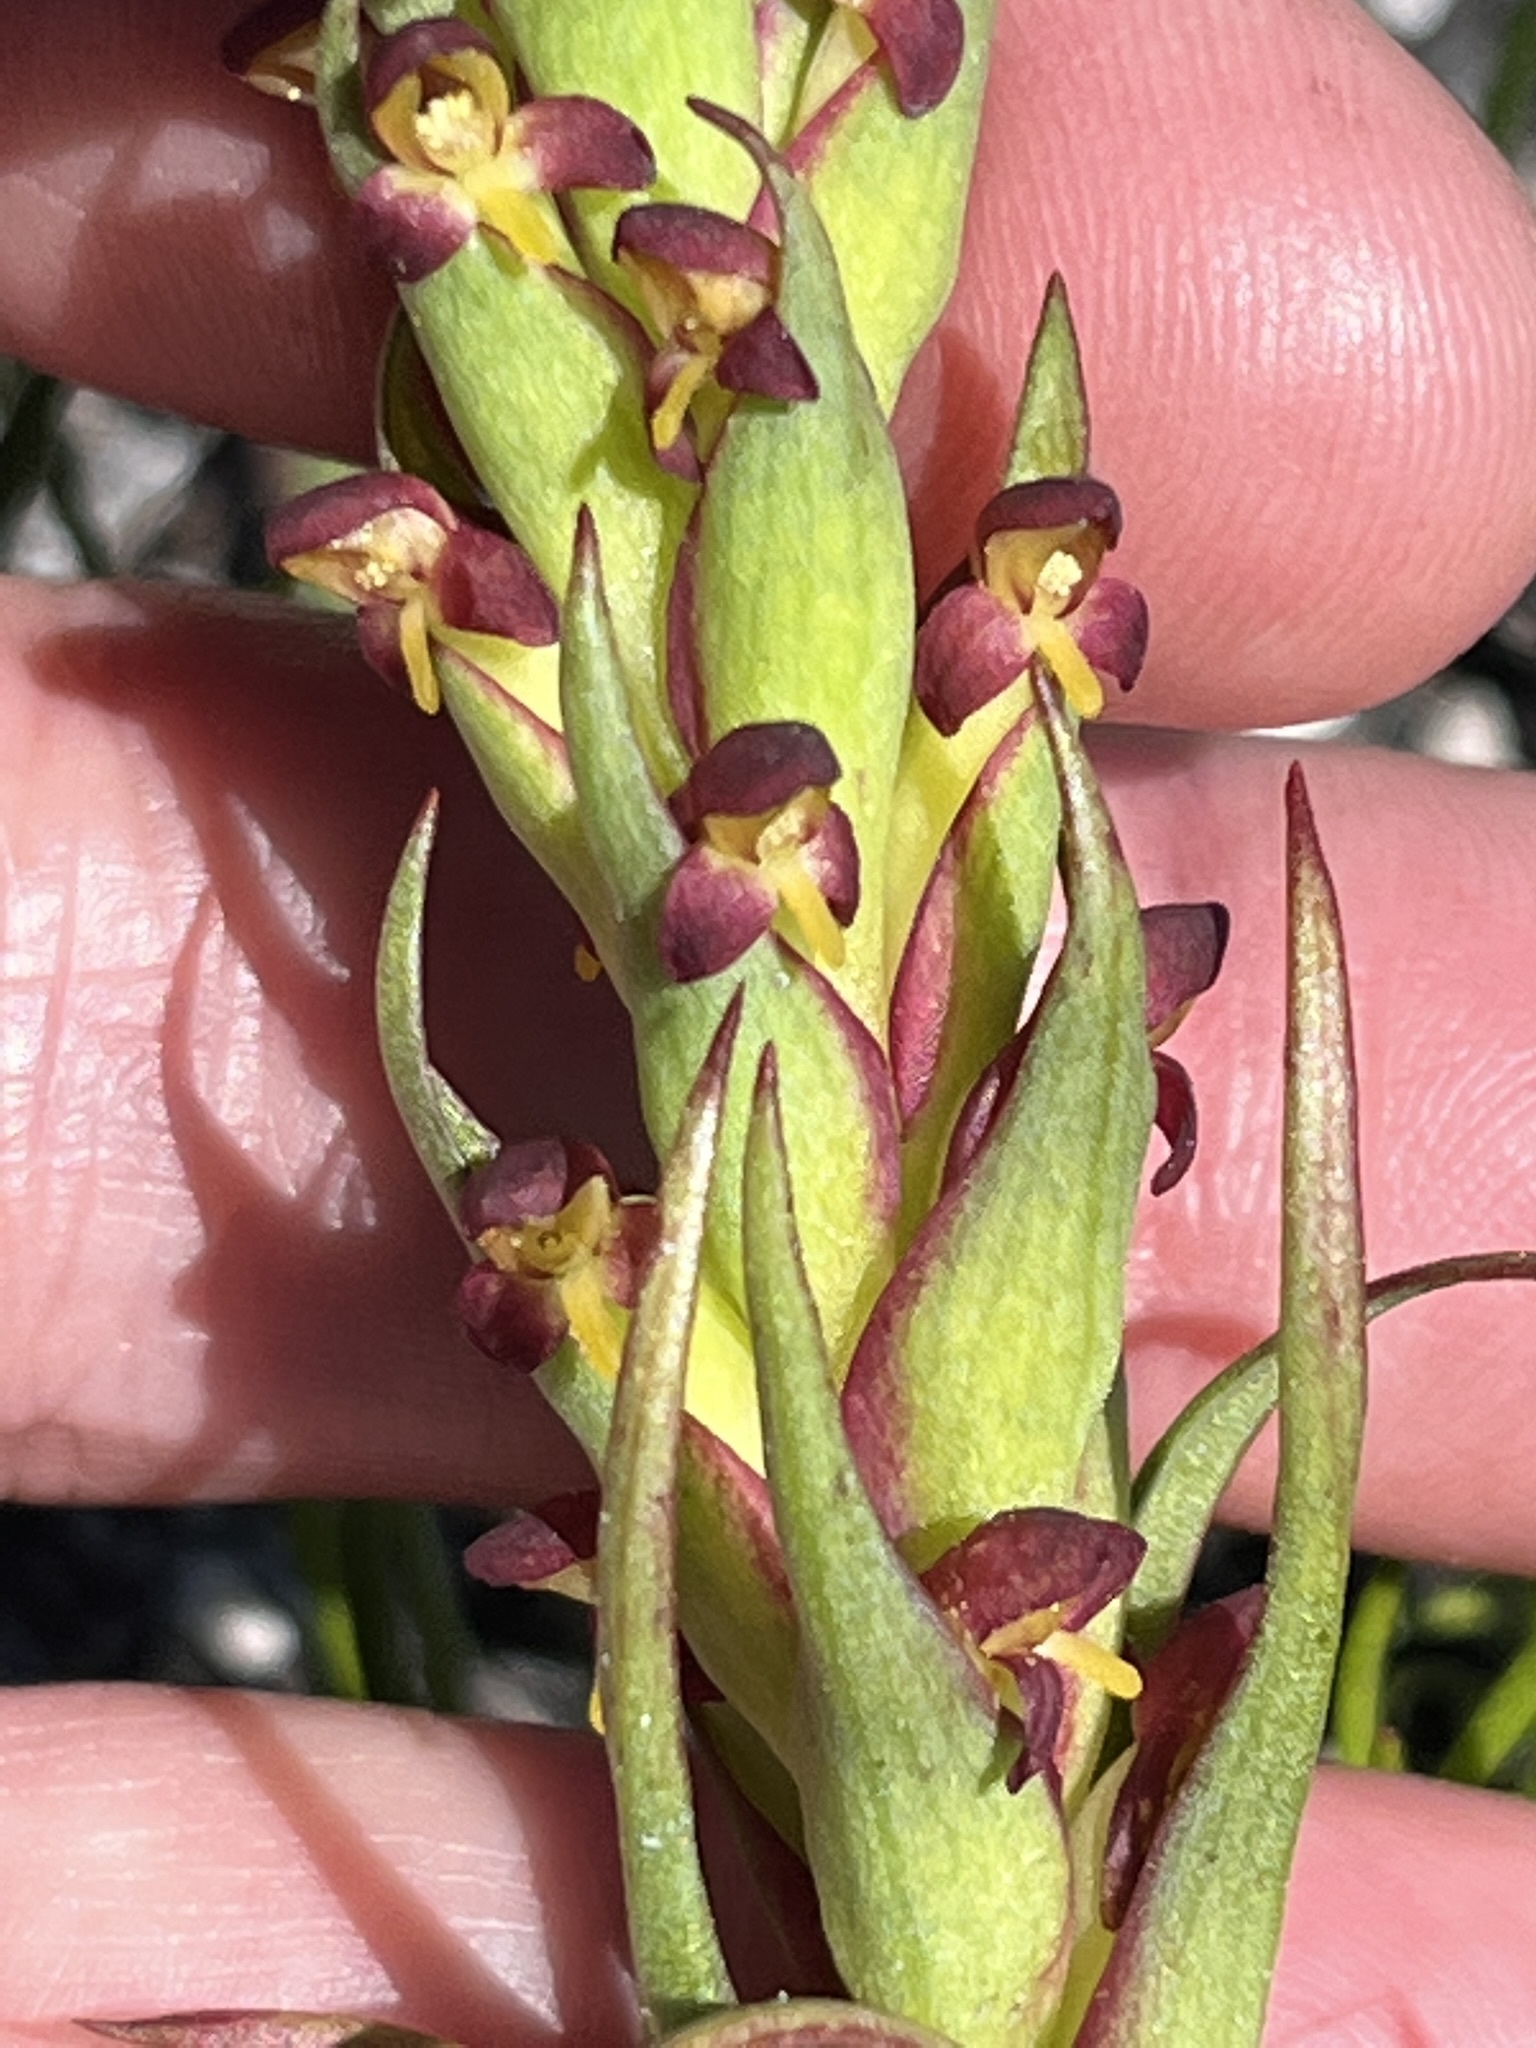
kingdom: Plantae
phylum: Tracheophyta
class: Liliopsida
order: Asparagales
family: Orchidaceae
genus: Disa
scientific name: Disa bracteata
